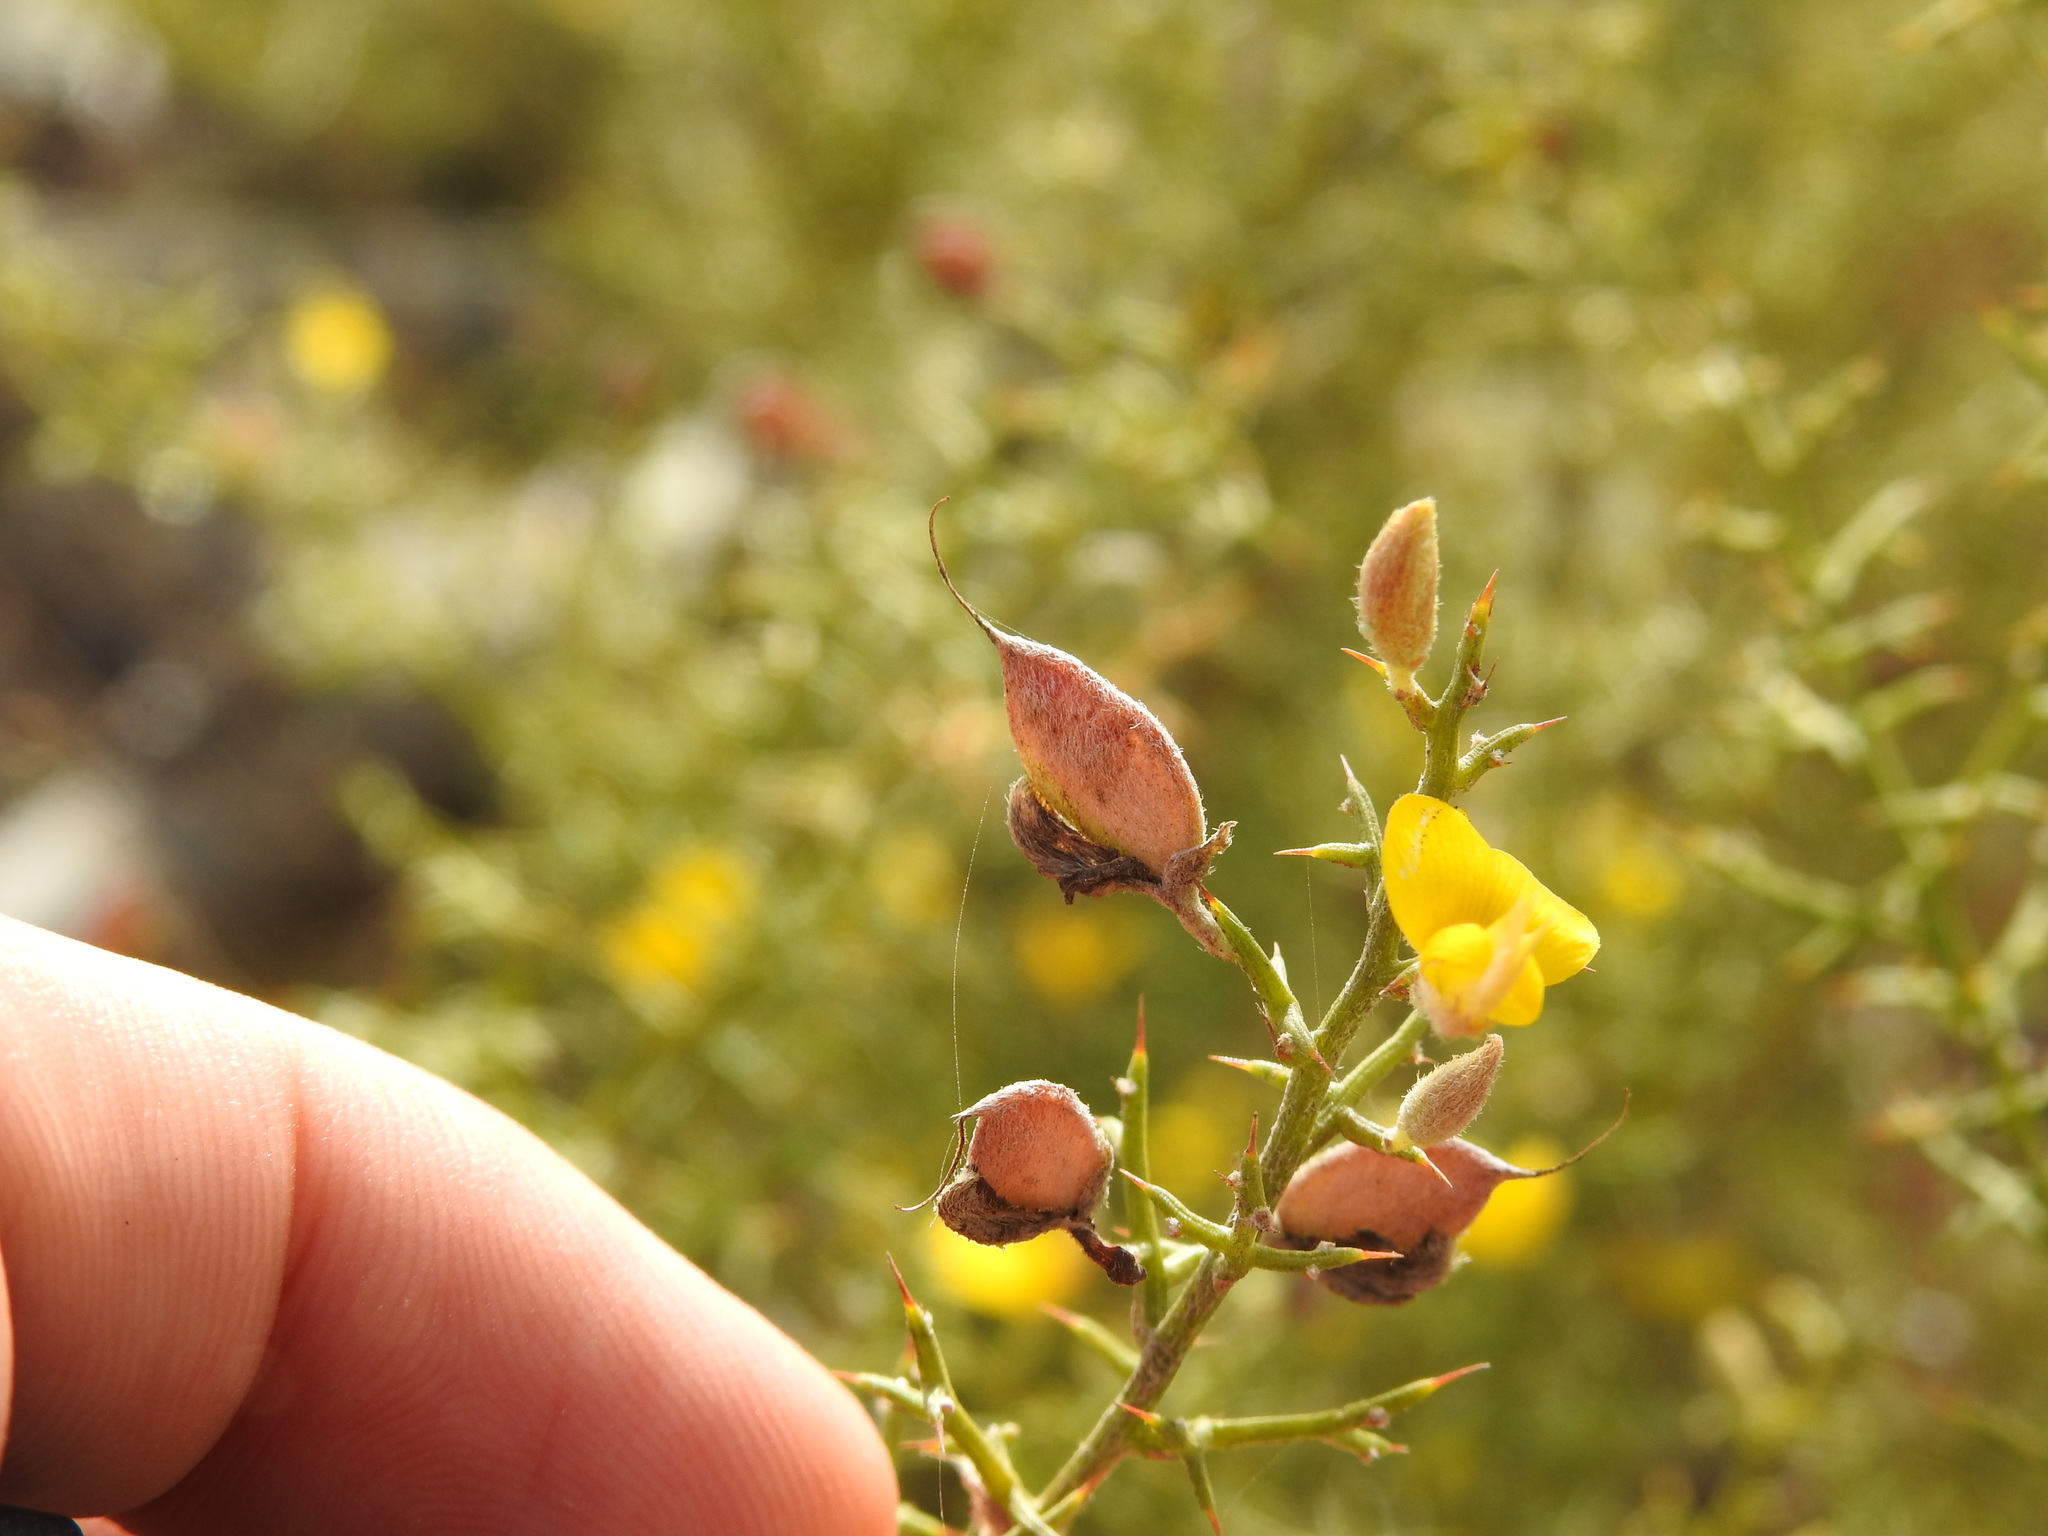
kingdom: Plantae
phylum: Tracheophyta
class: Magnoliopsida
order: Fabales
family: Fabaceae
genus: Stauracanthus
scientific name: Stauracanthus boivinii
